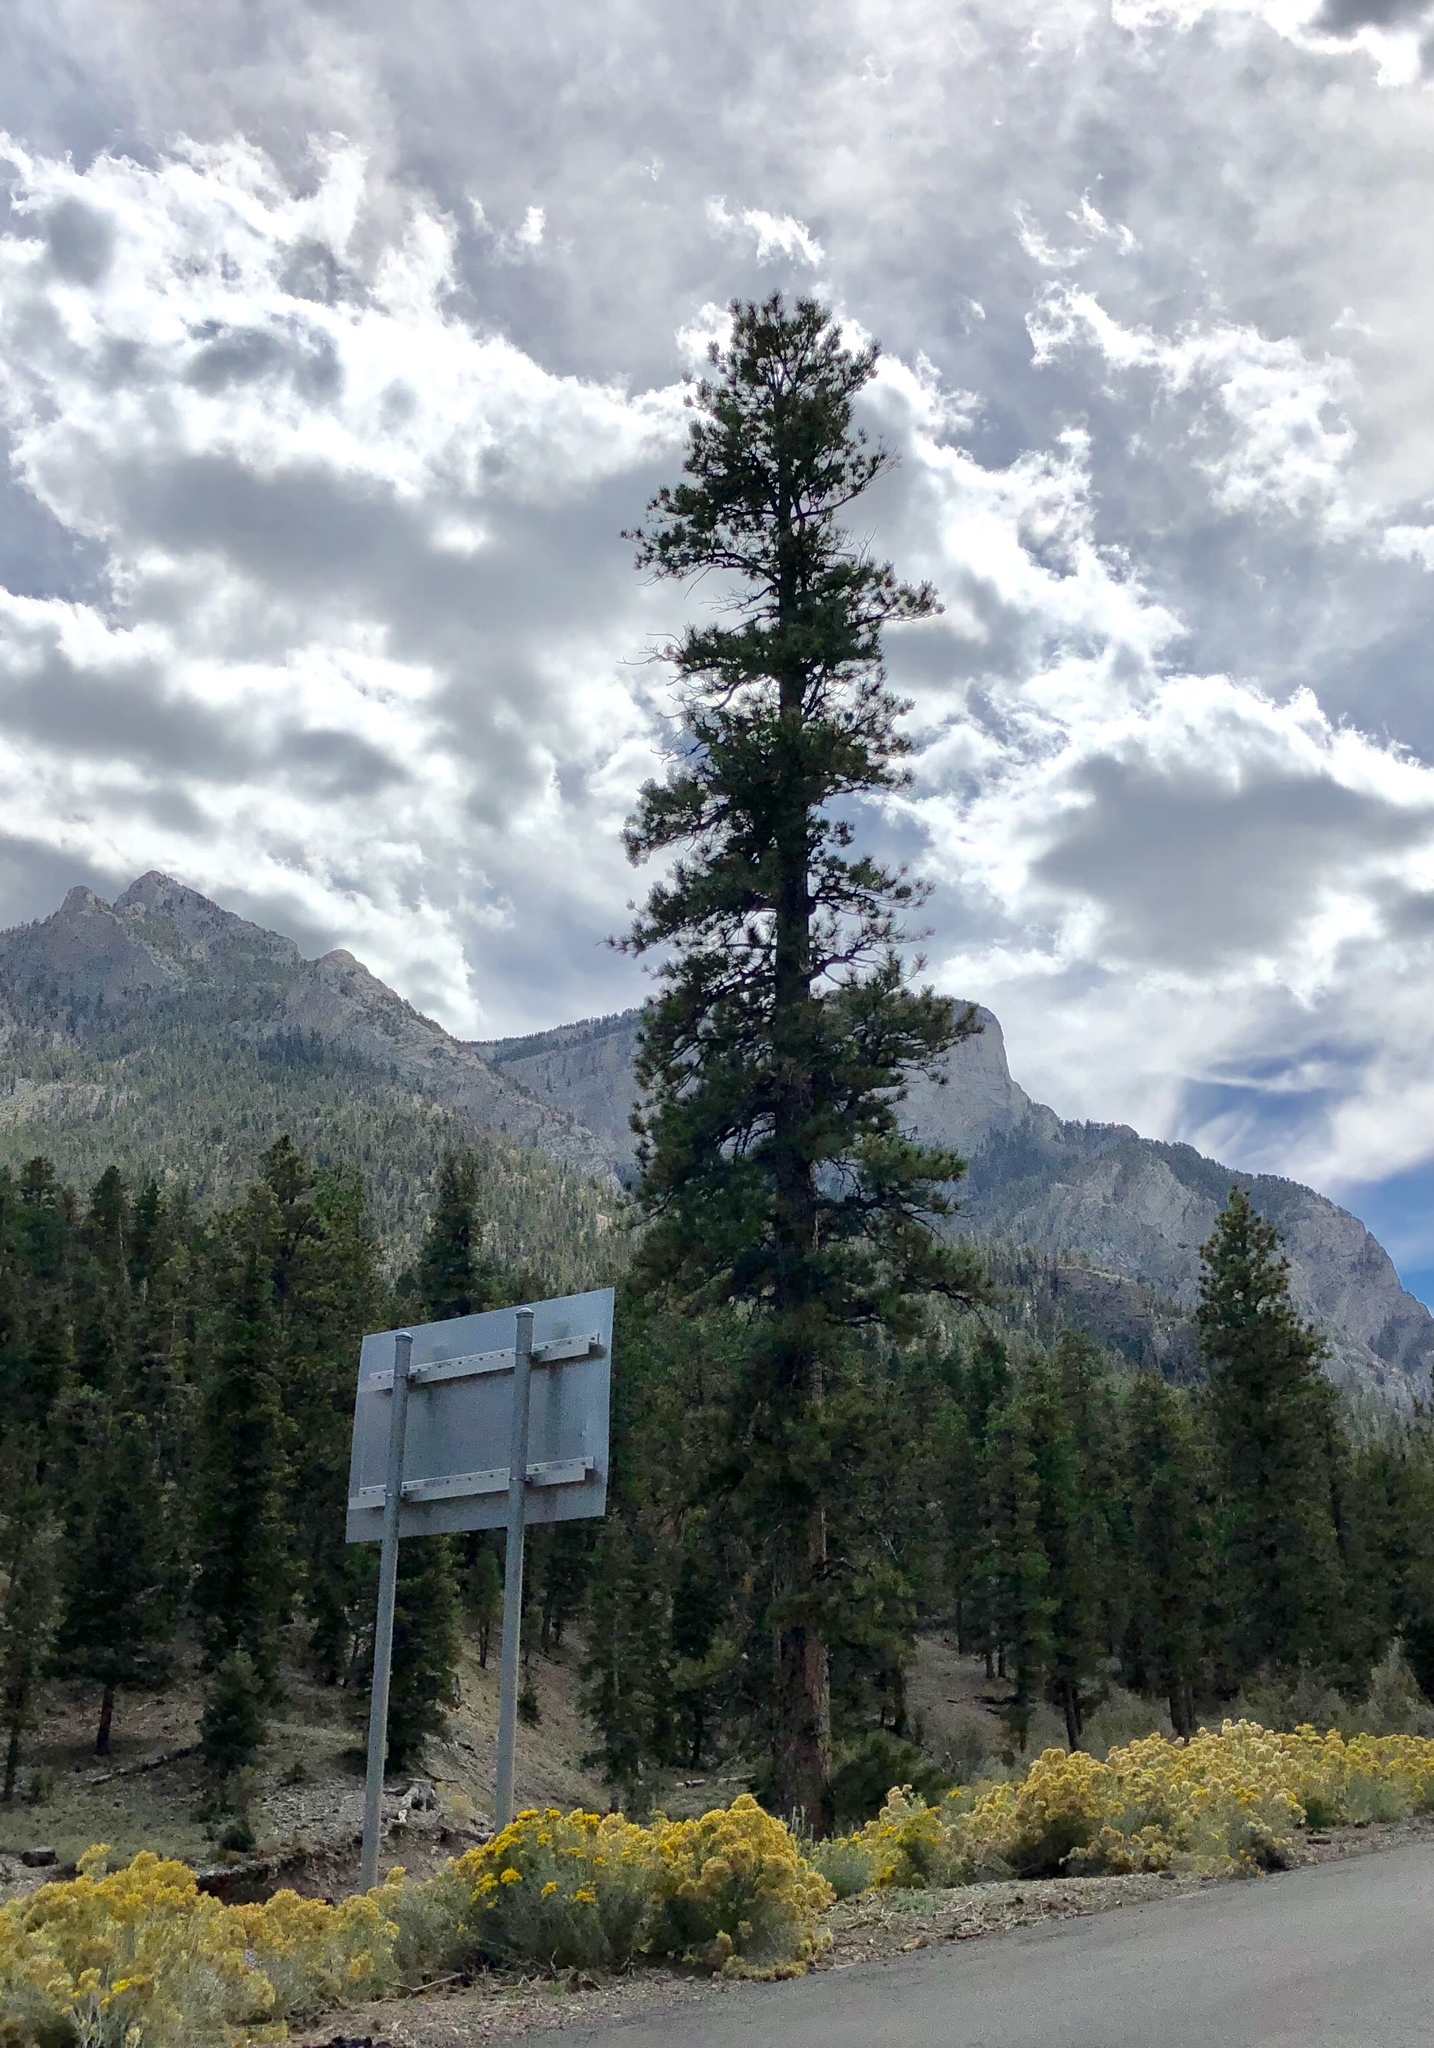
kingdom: Plantae
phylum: Tracheophyta
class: Pinopsida
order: Pinales
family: Pinaceae
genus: Pinus
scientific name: Pinus ponderosa
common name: Western yellow-pine
